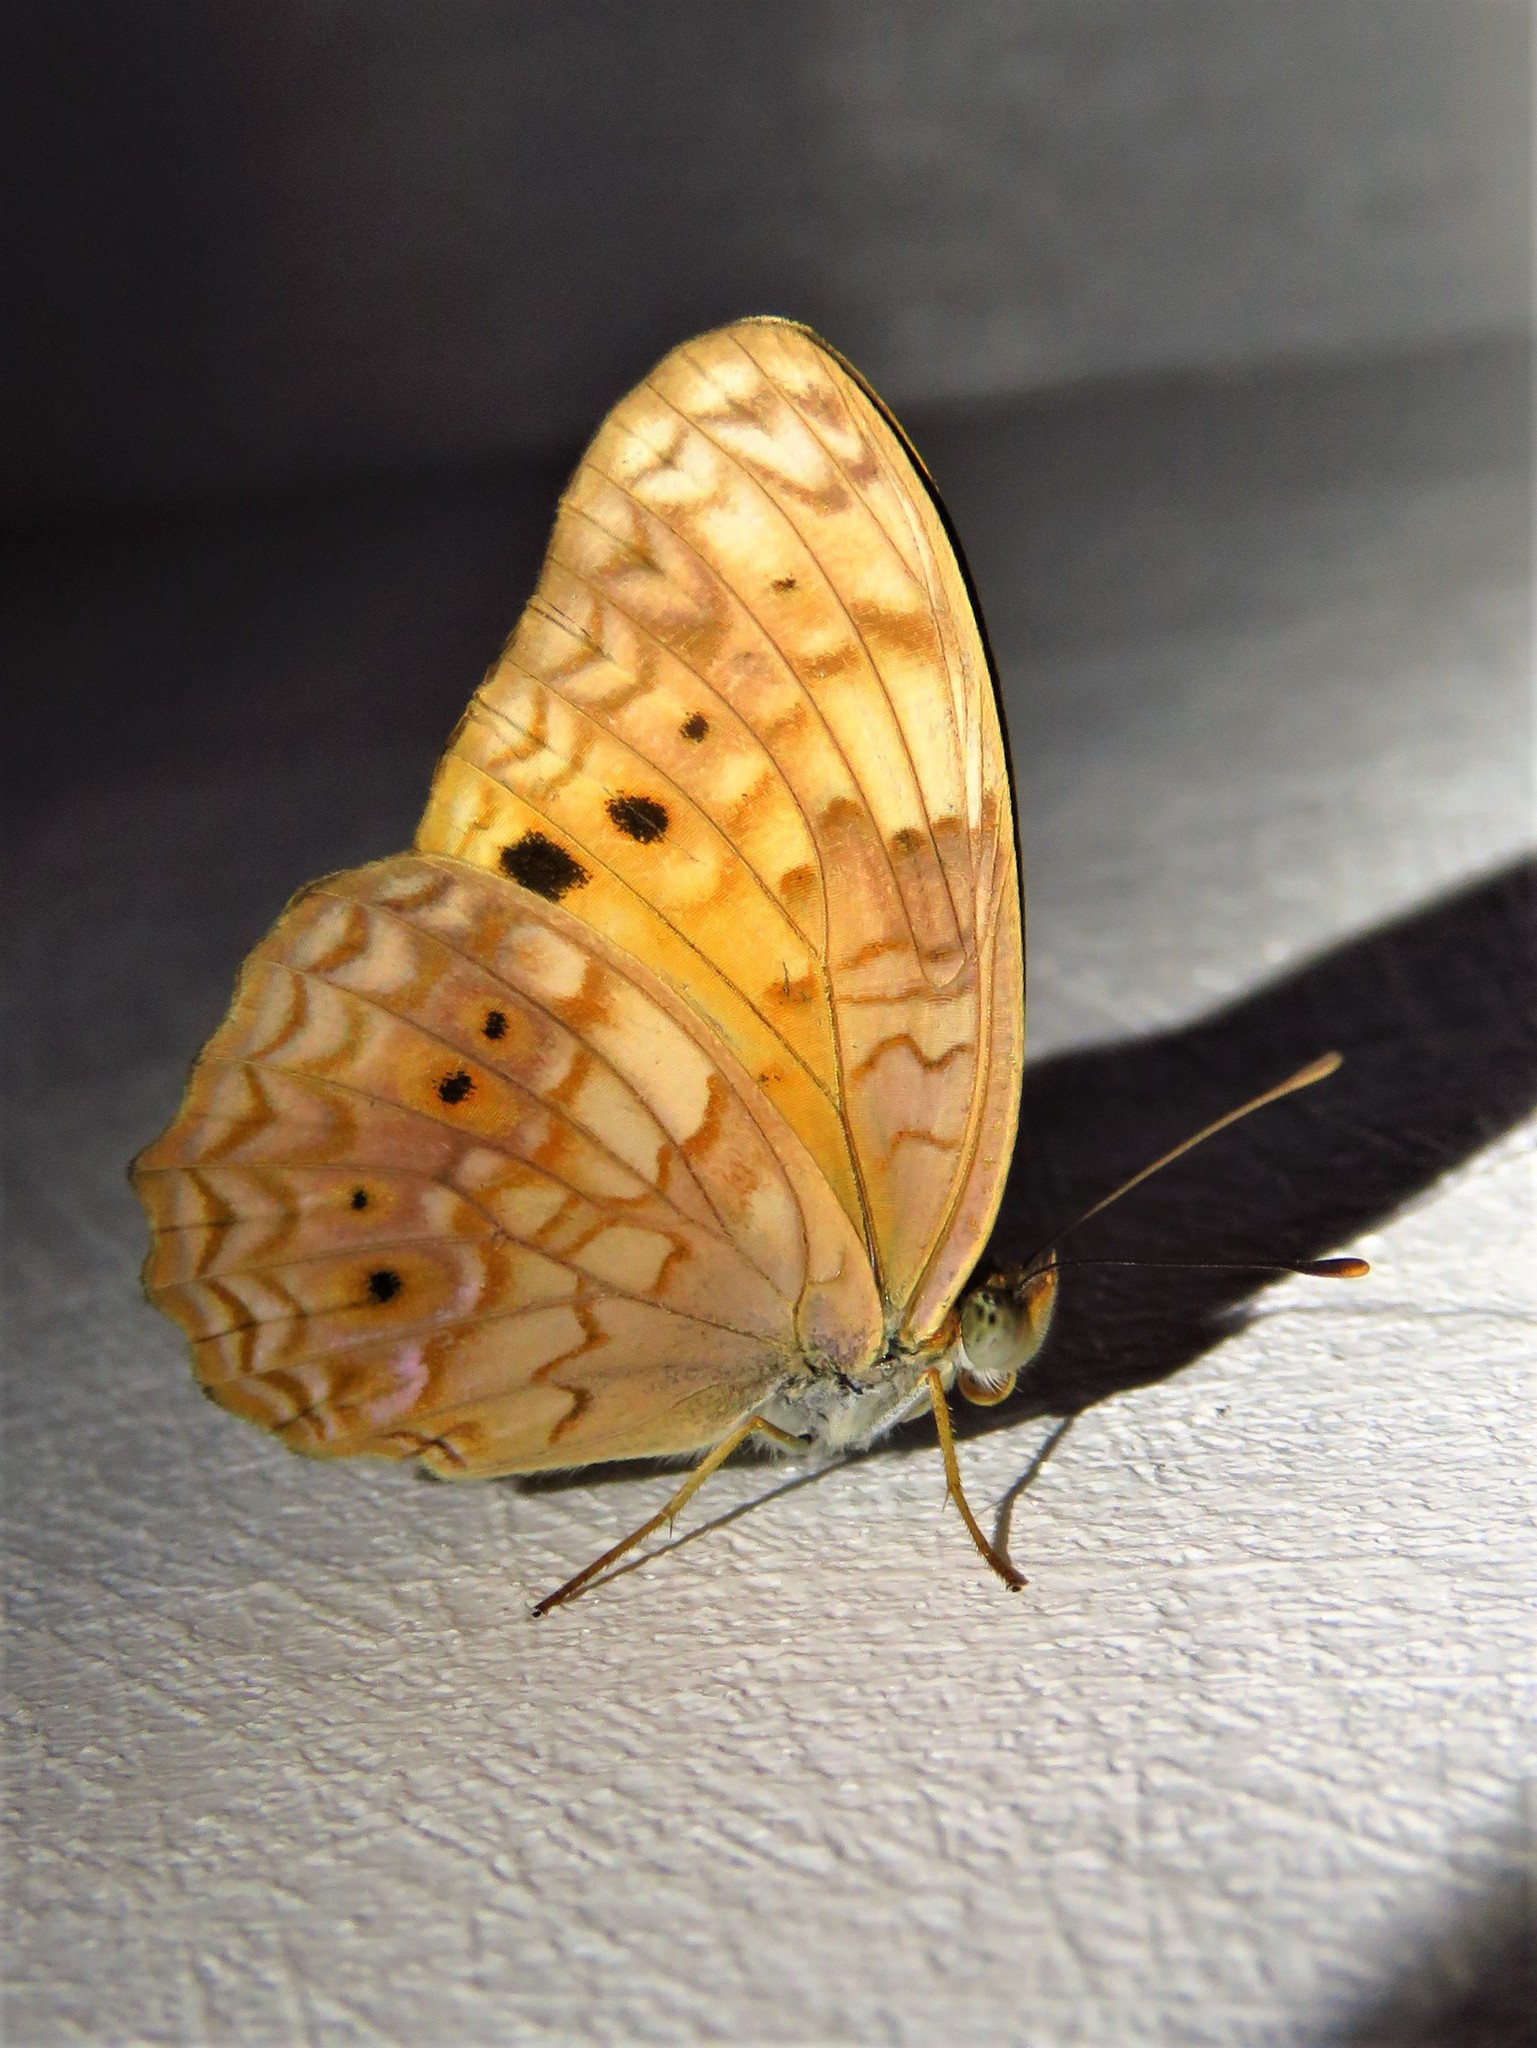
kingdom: Animalia
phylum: Arthropoda
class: Insecta
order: Lepidoptera
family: Nymphalidae
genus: Phalanta
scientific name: Phalanta columbina
